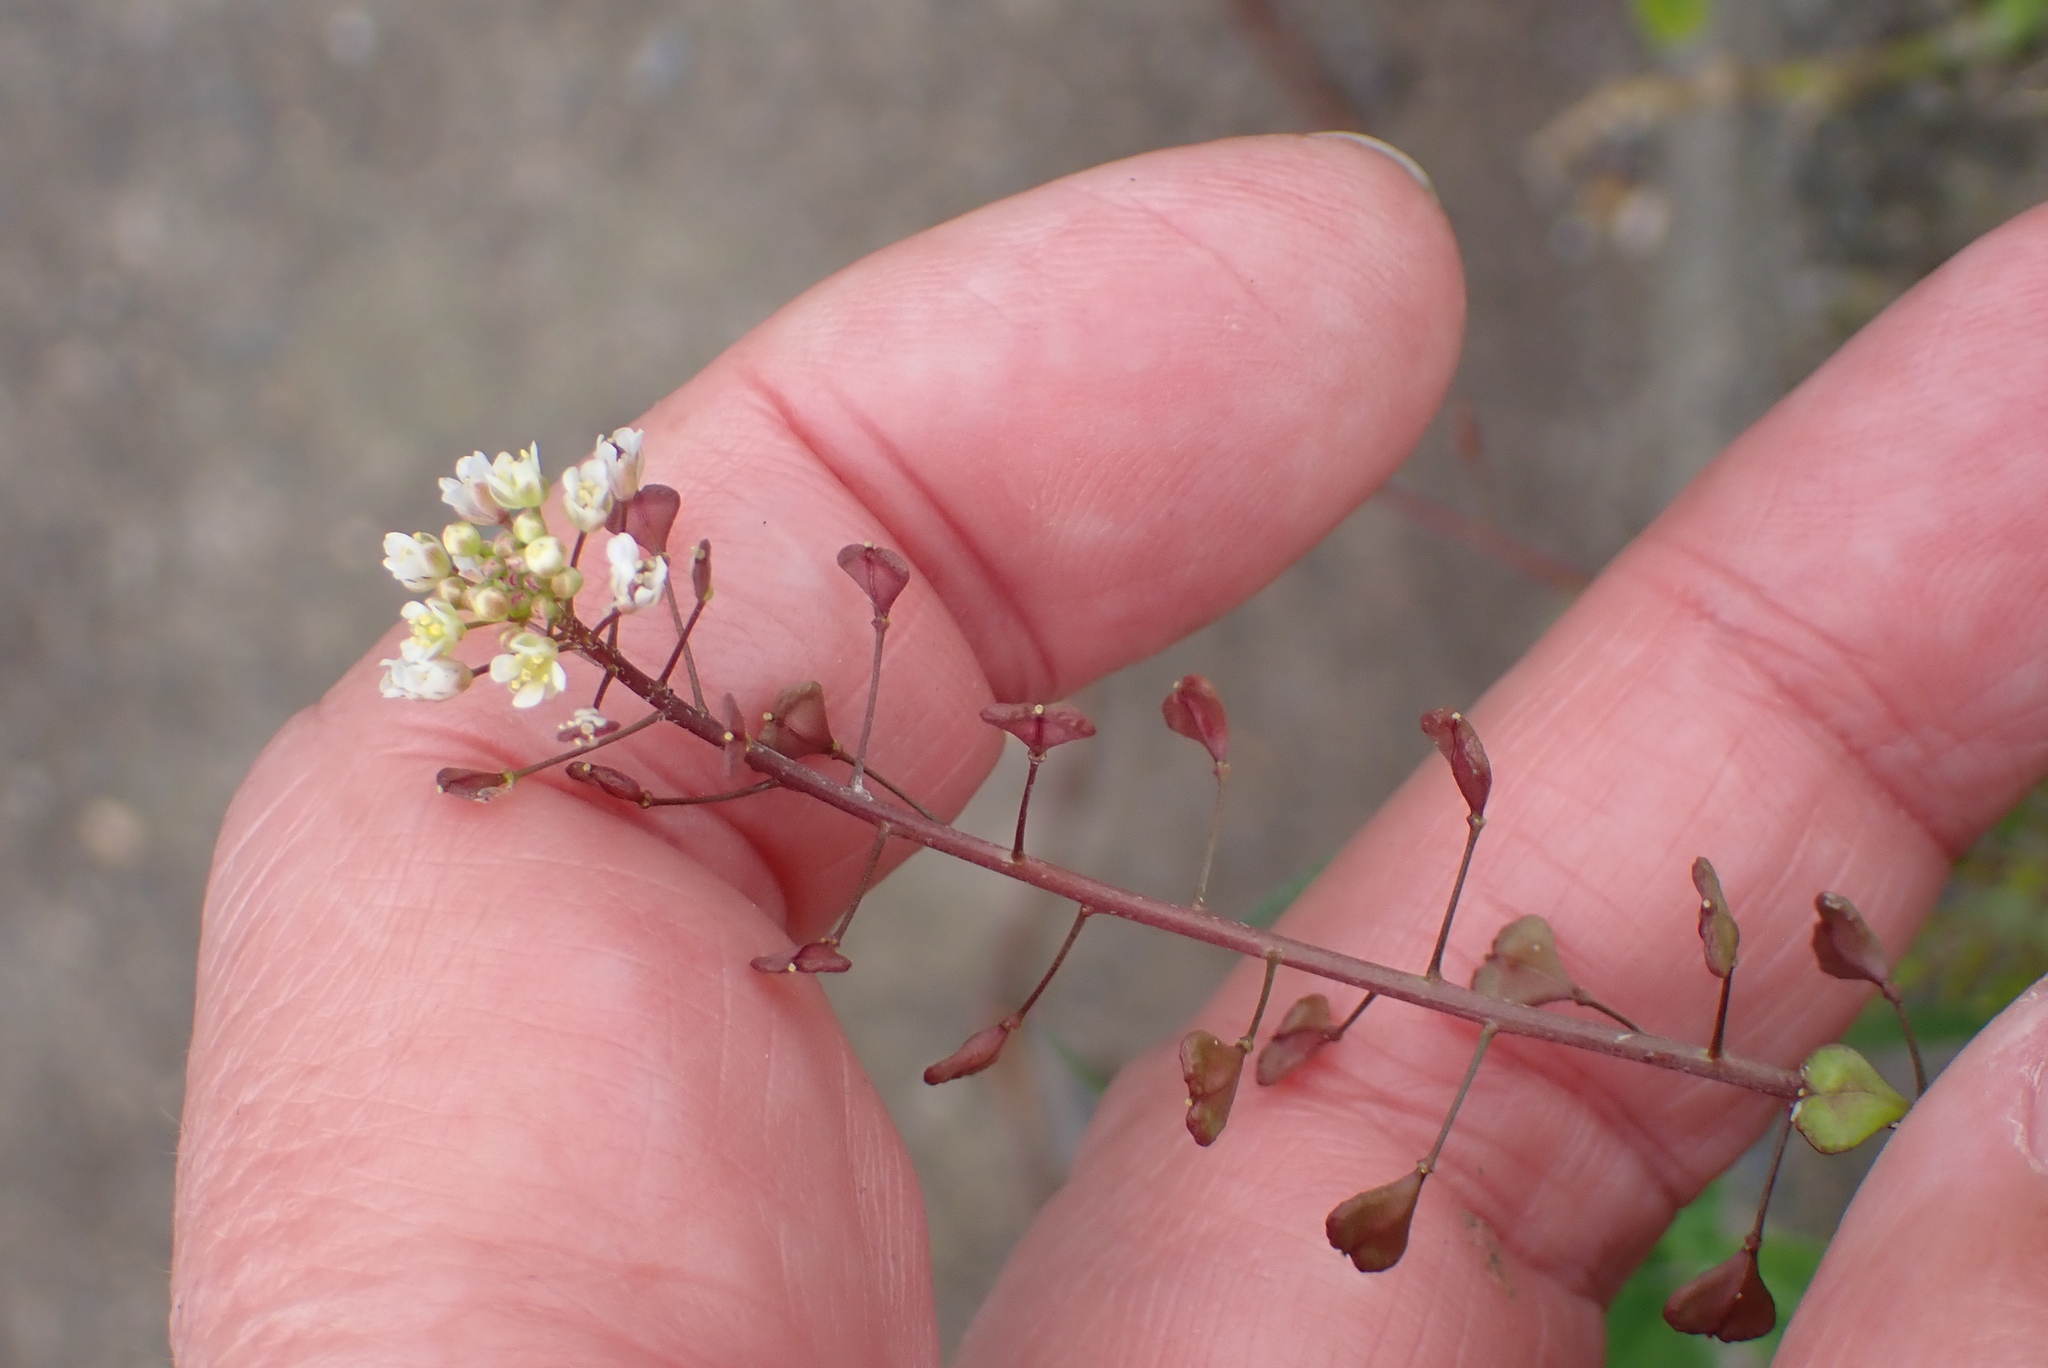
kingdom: Plantae
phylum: Tracheophyta
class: Magnoliopsida
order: Brassicales
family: Brassicaceae
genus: Capsella
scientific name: Capsella bursa-pastoris
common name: Shepherd's purse
